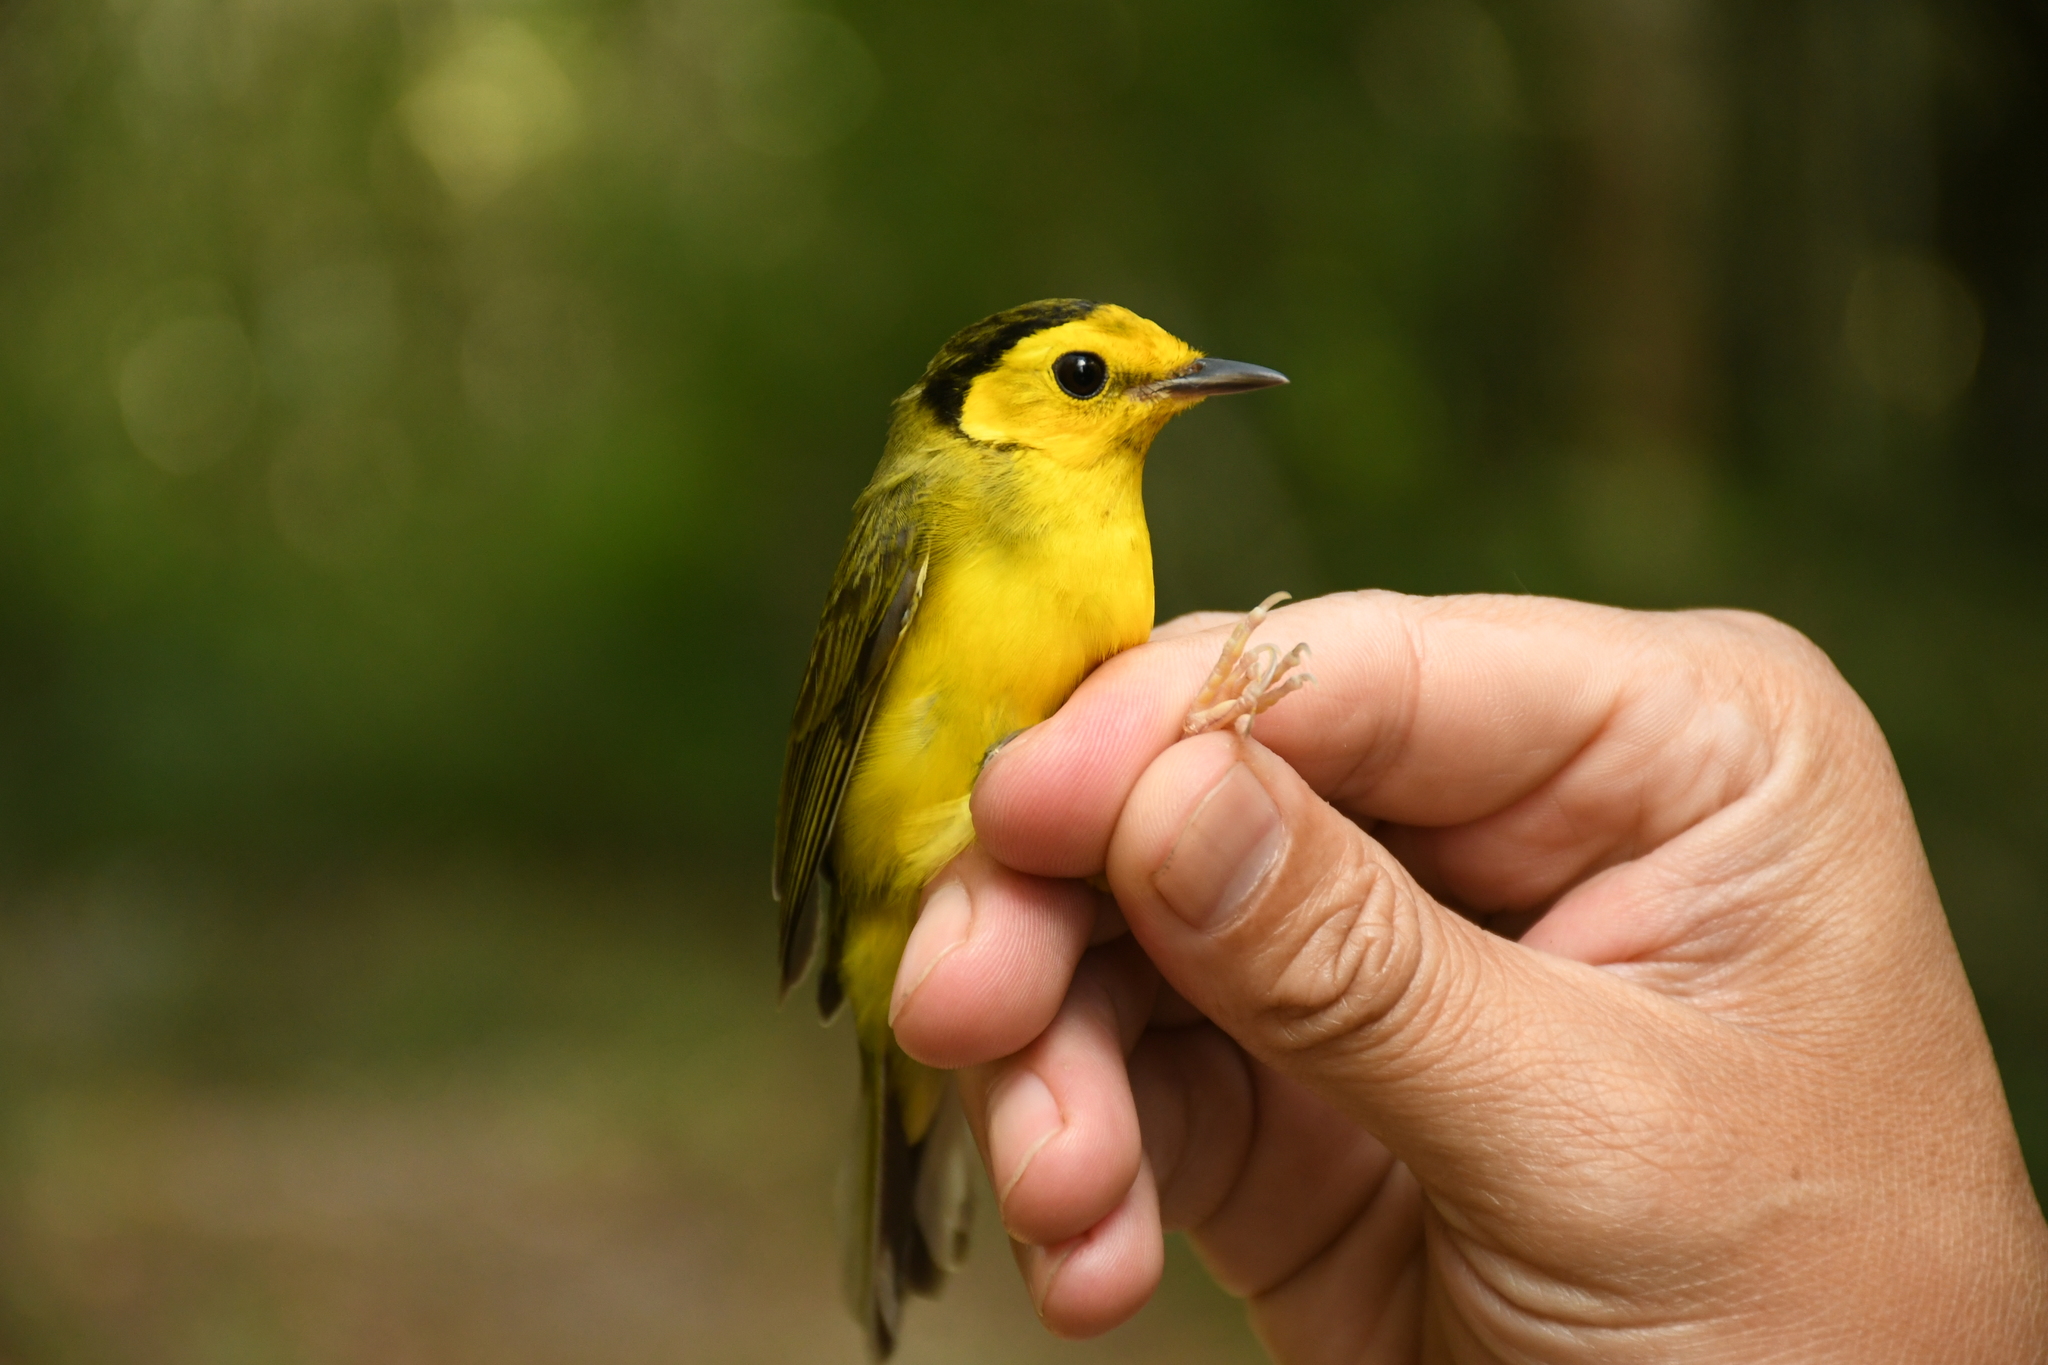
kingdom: Animalia
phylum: Chordata
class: Aves
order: Passeriformes
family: Parulidae
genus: Setophaga
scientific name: Setophaga citrina
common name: Hooded warbler
